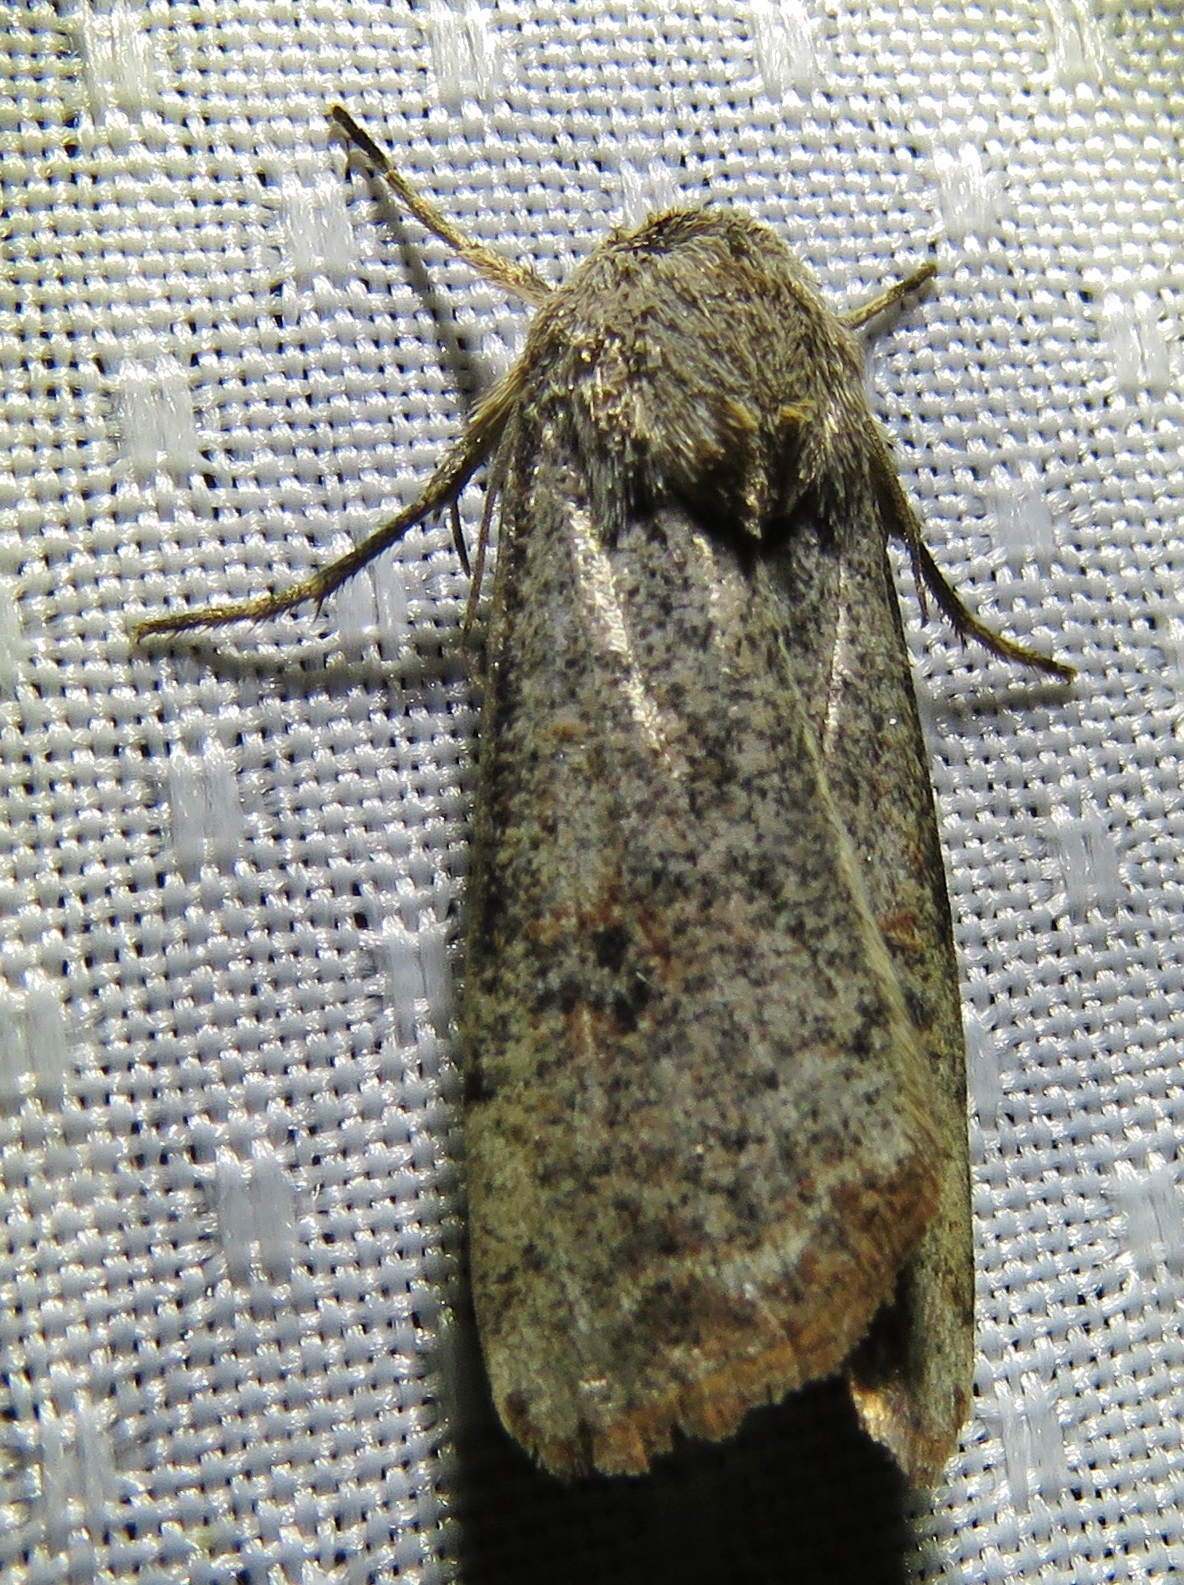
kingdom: Animalia
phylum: Arthropoda
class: Insecta
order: Lepidoptera
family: Noctuidae
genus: Anicla
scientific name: Anicla infecta
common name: Green cutworm
